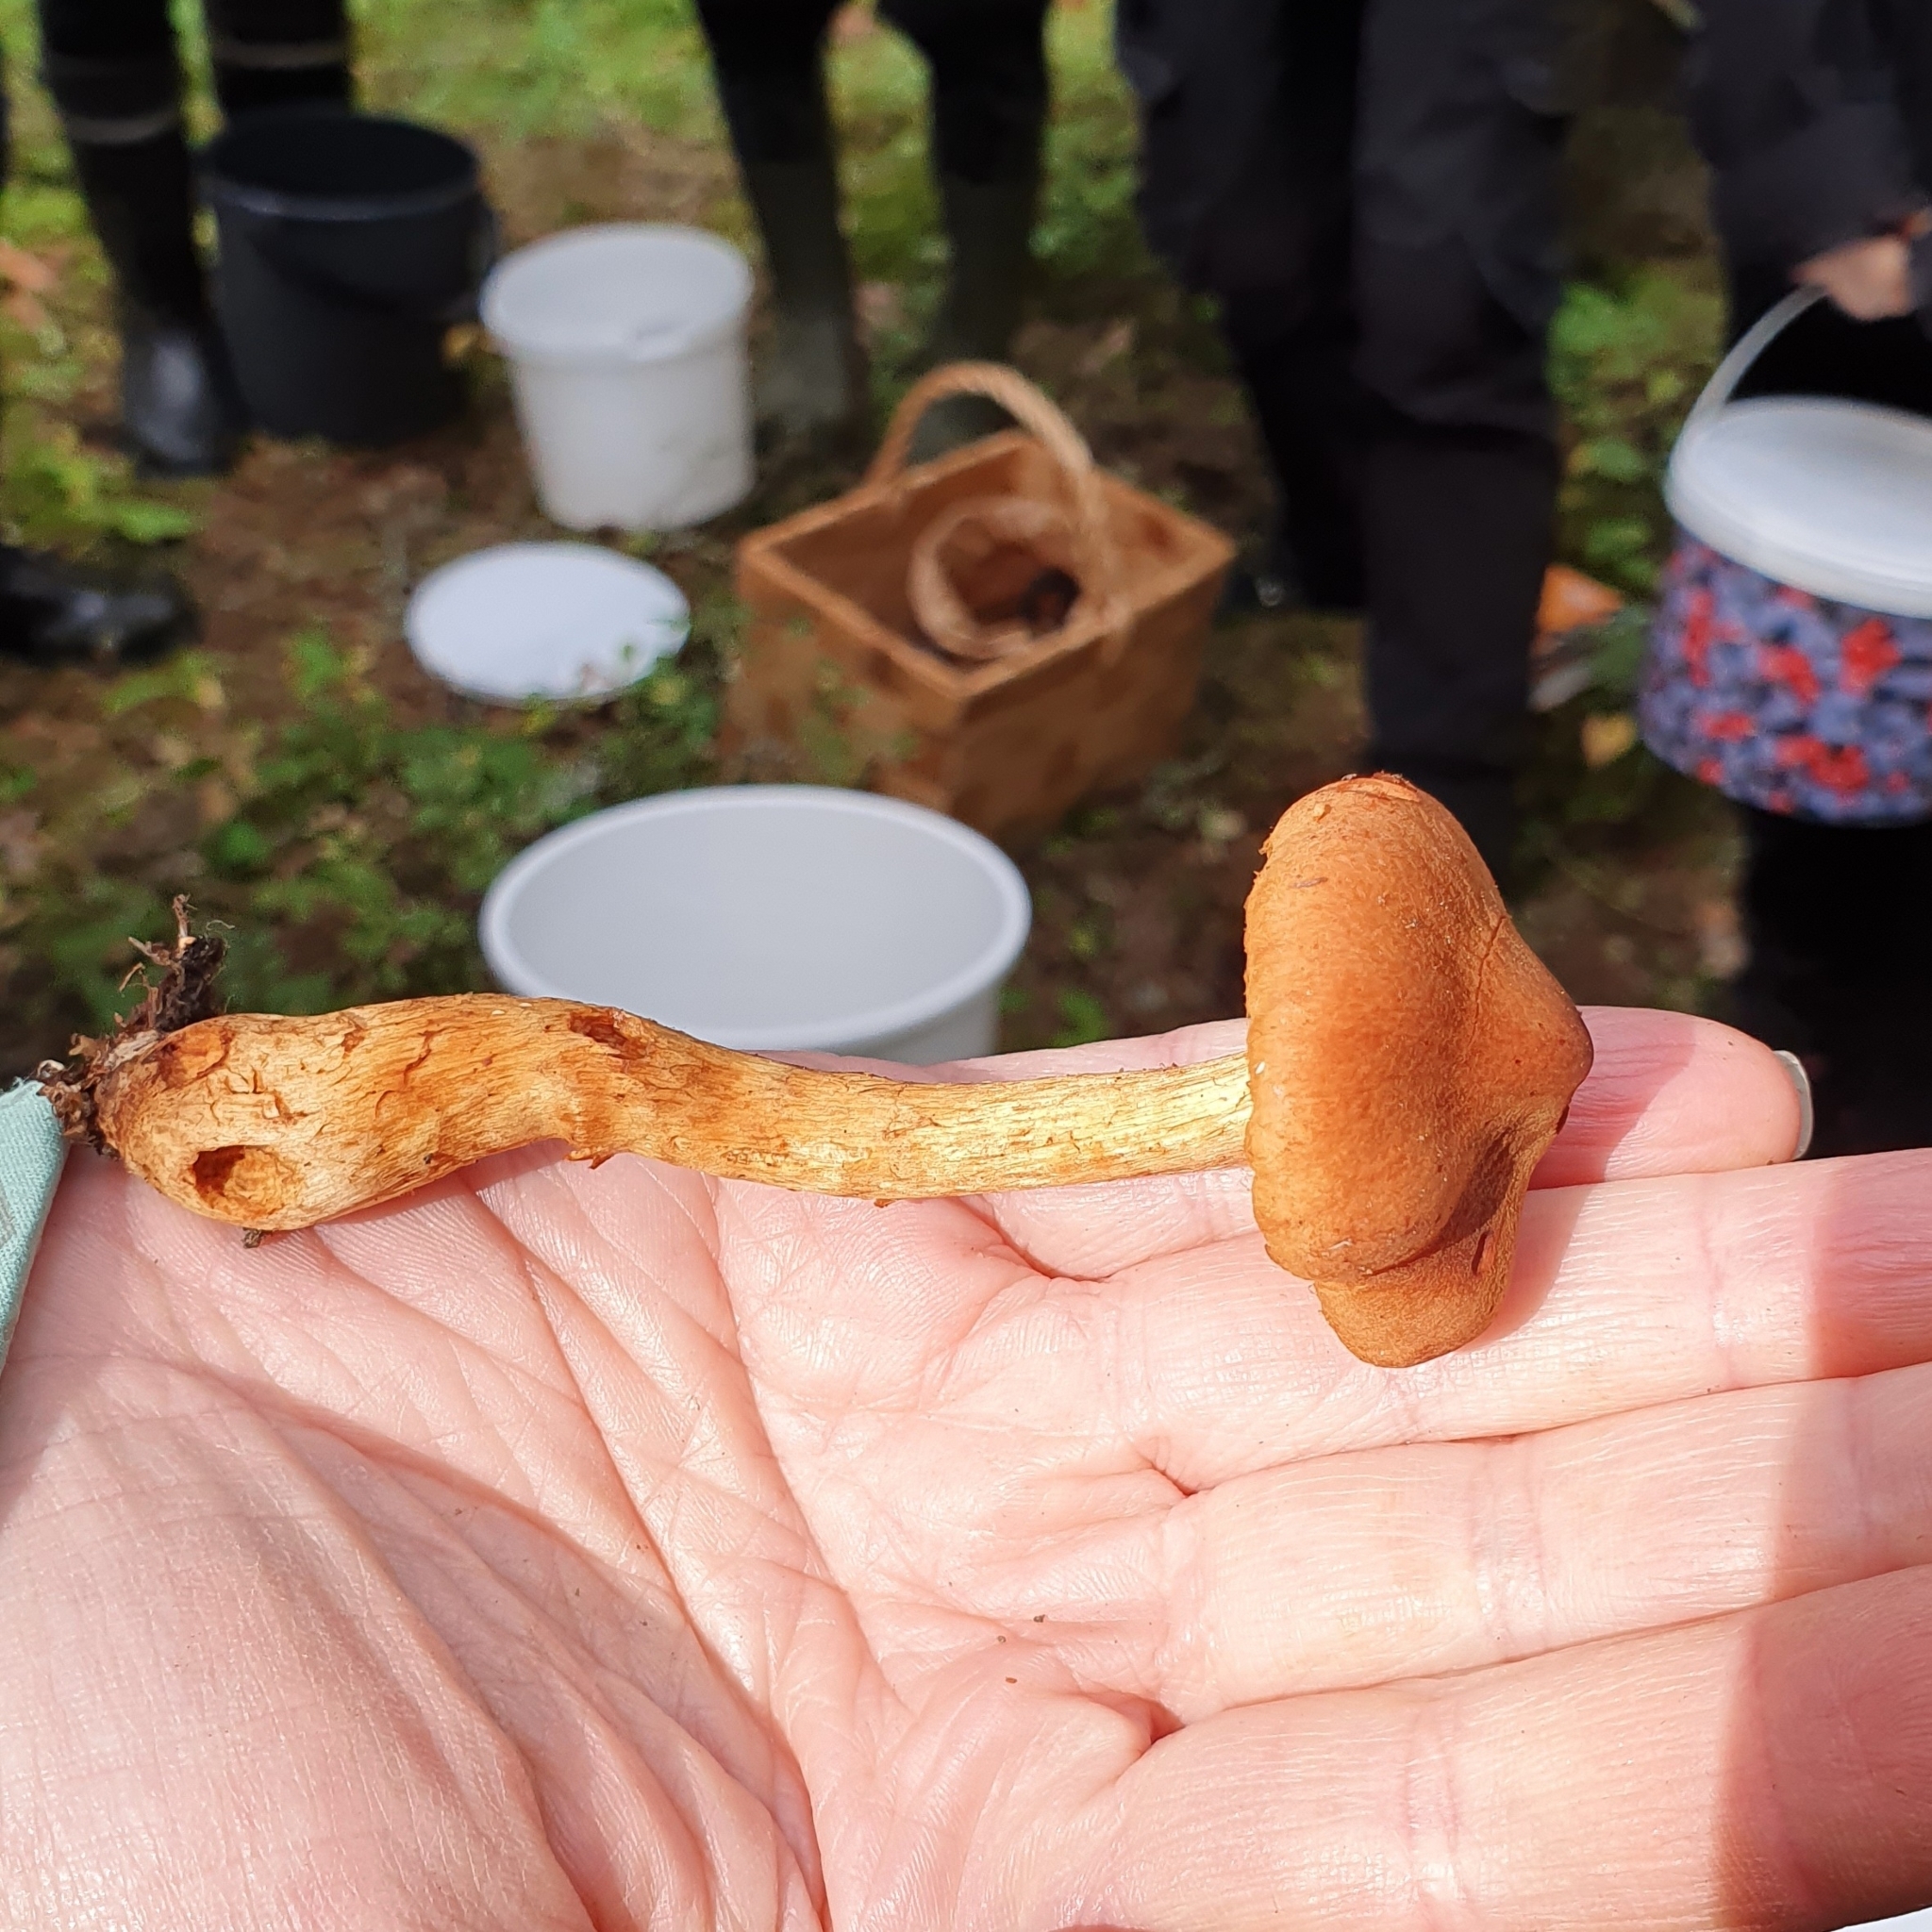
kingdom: Fungi
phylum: Basidiomycota
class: Agaricomycetes
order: Agaricales
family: Cortinariaceae
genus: Cortinarius
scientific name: Cortinarius rubellus
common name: Deadly webcap
